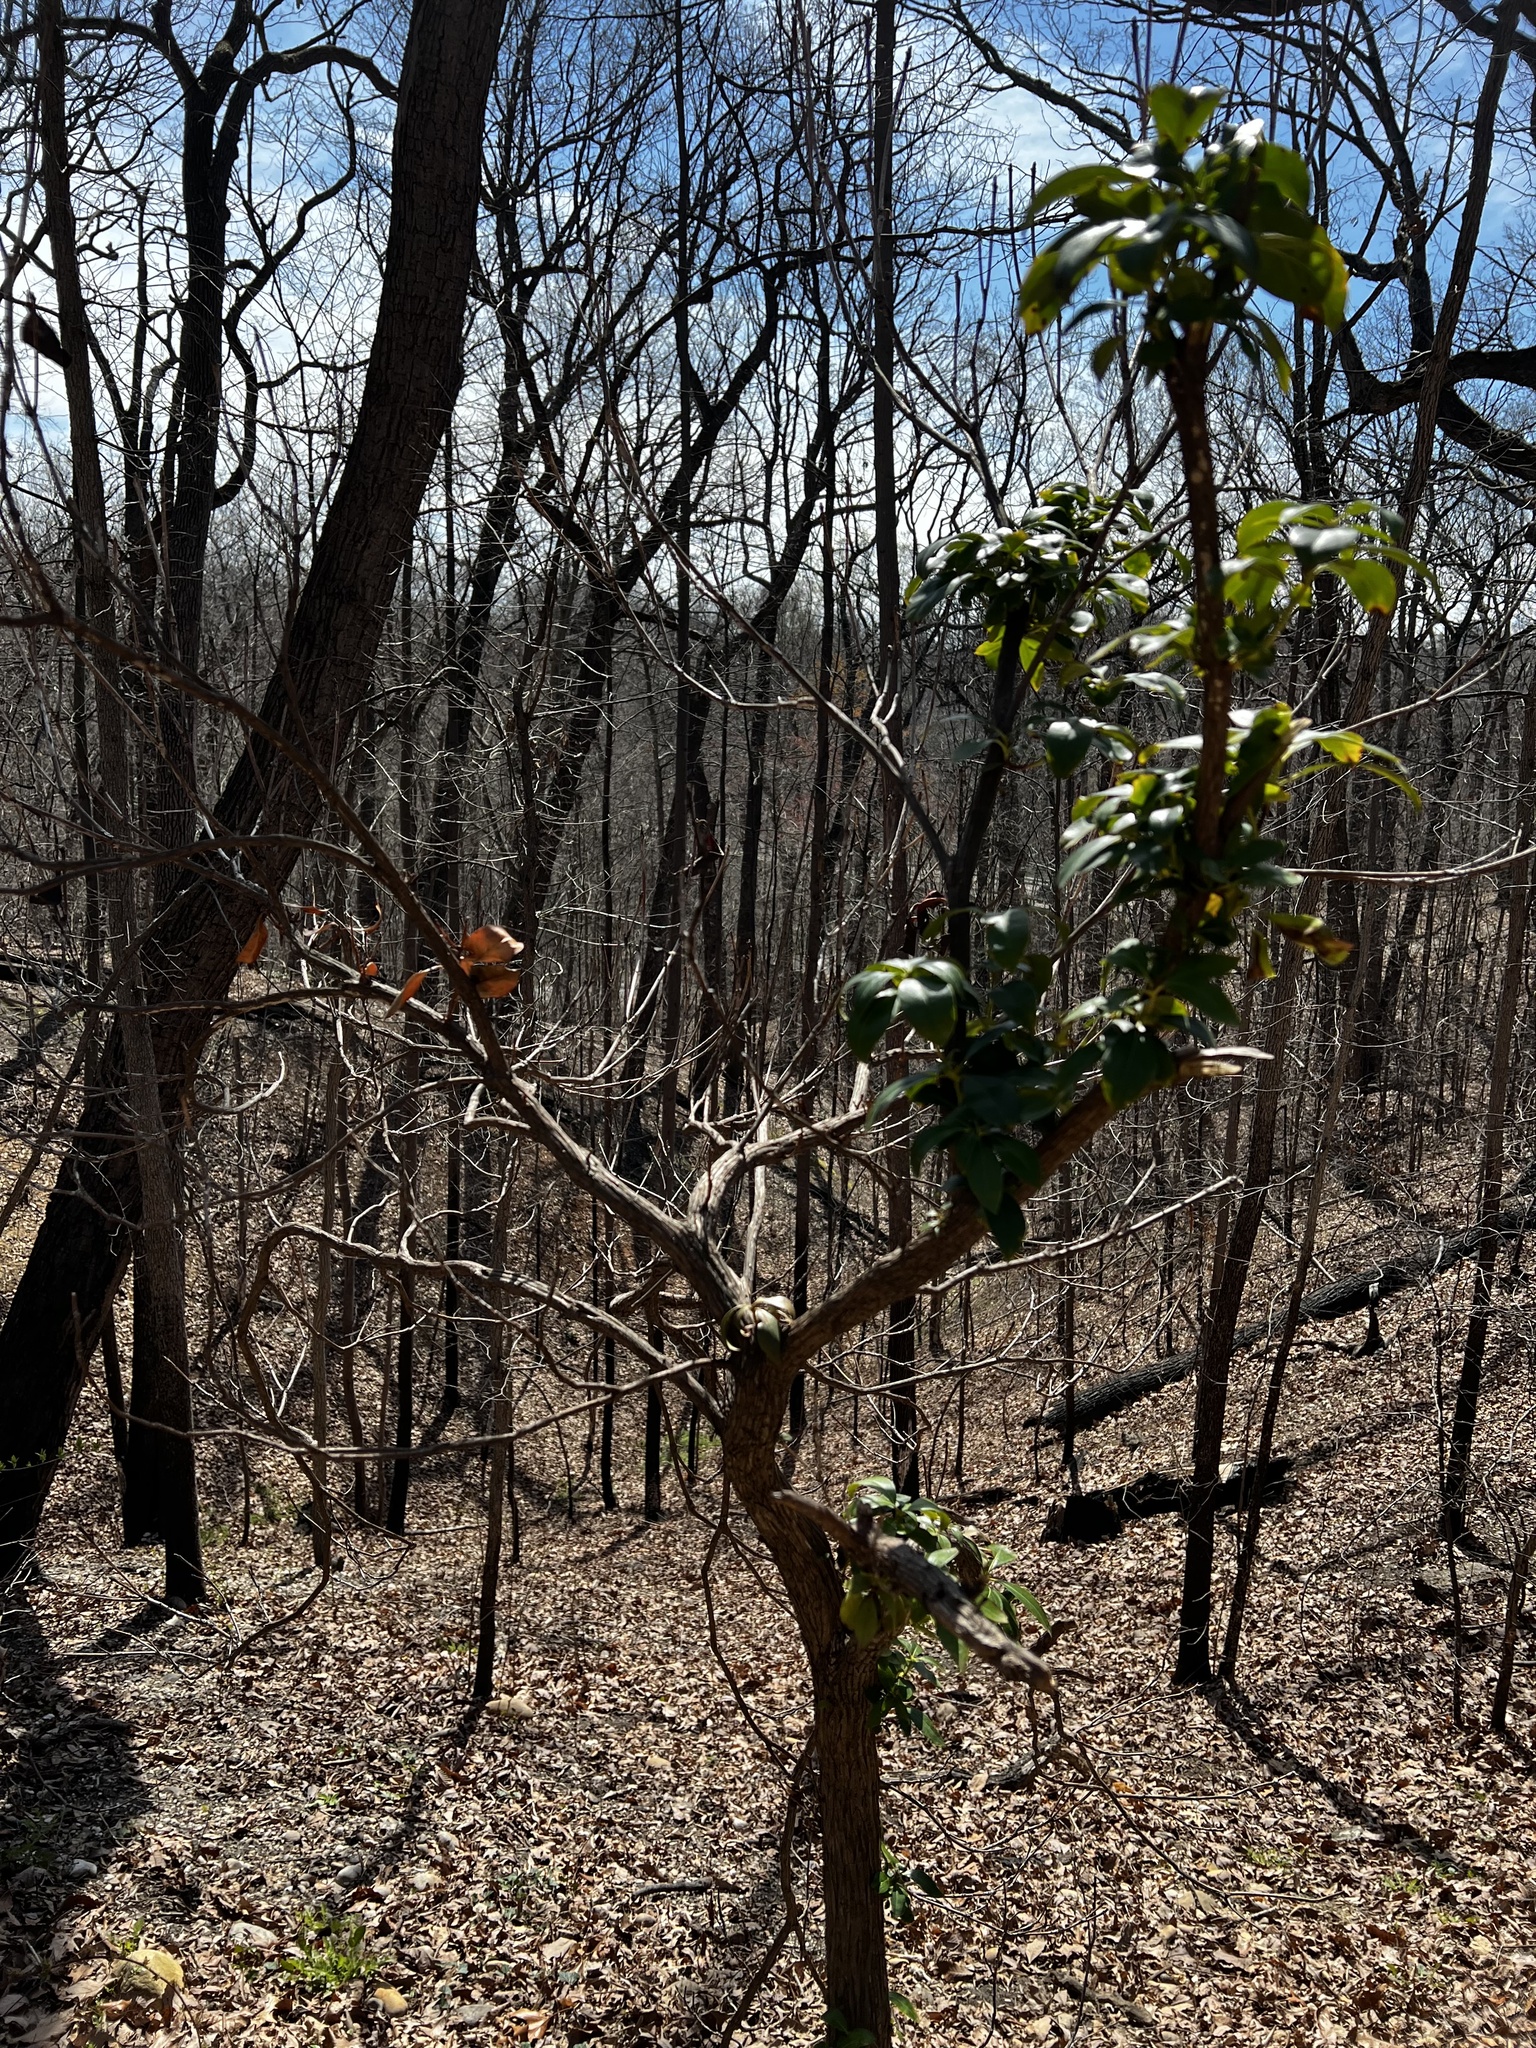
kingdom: Plantae
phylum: Tracheophyta
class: Magnoliopsida
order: Ericales
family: Ericaceae
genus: Kalmia
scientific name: Kalmia latifolia
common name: Mountain-laurel
